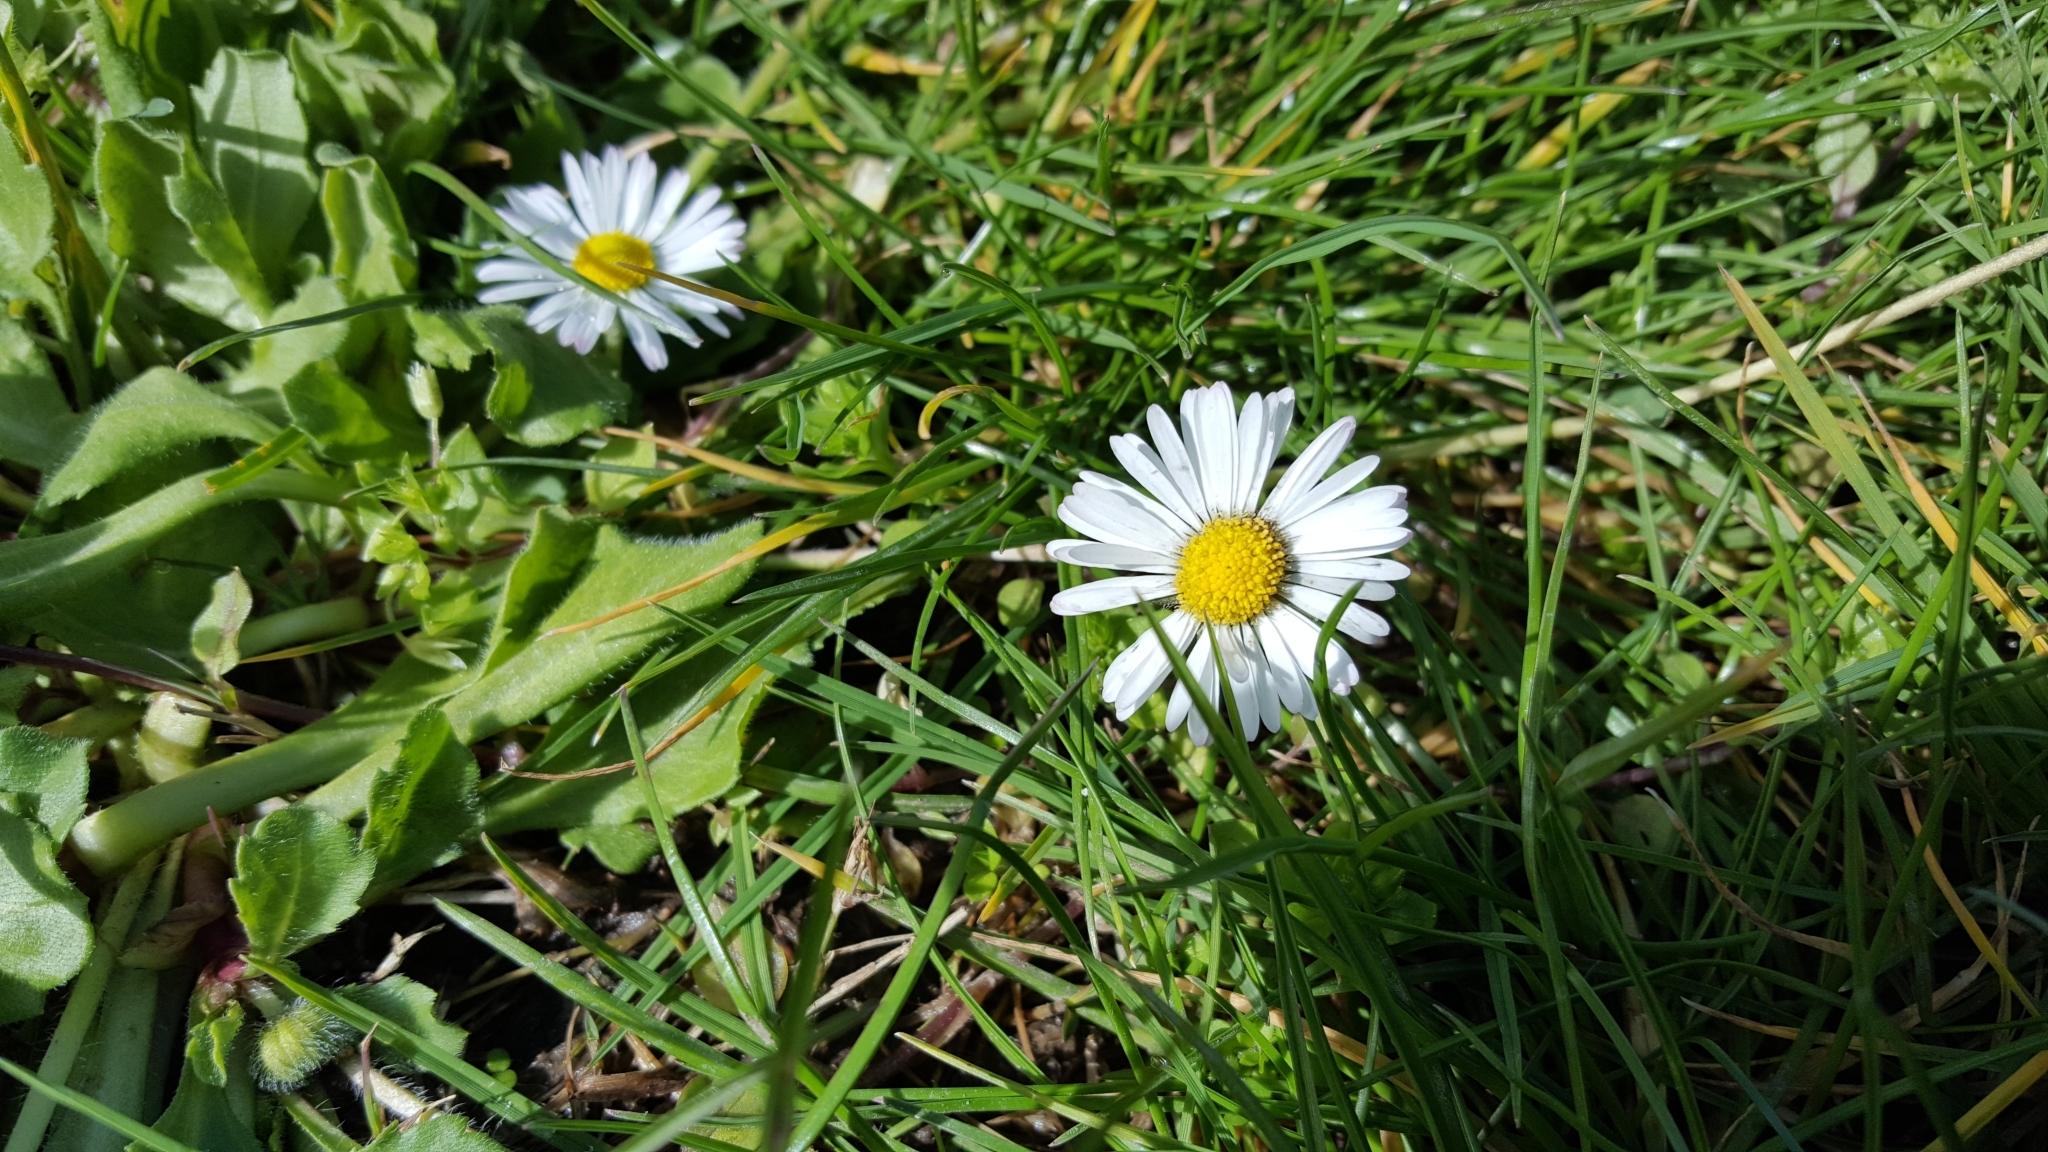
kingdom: Plantae
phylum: Tracheophyta
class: Magnoliopsida
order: Asterales
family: Asteraceae
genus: Bellis
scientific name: Bellis perennis
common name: Lawndaisy
